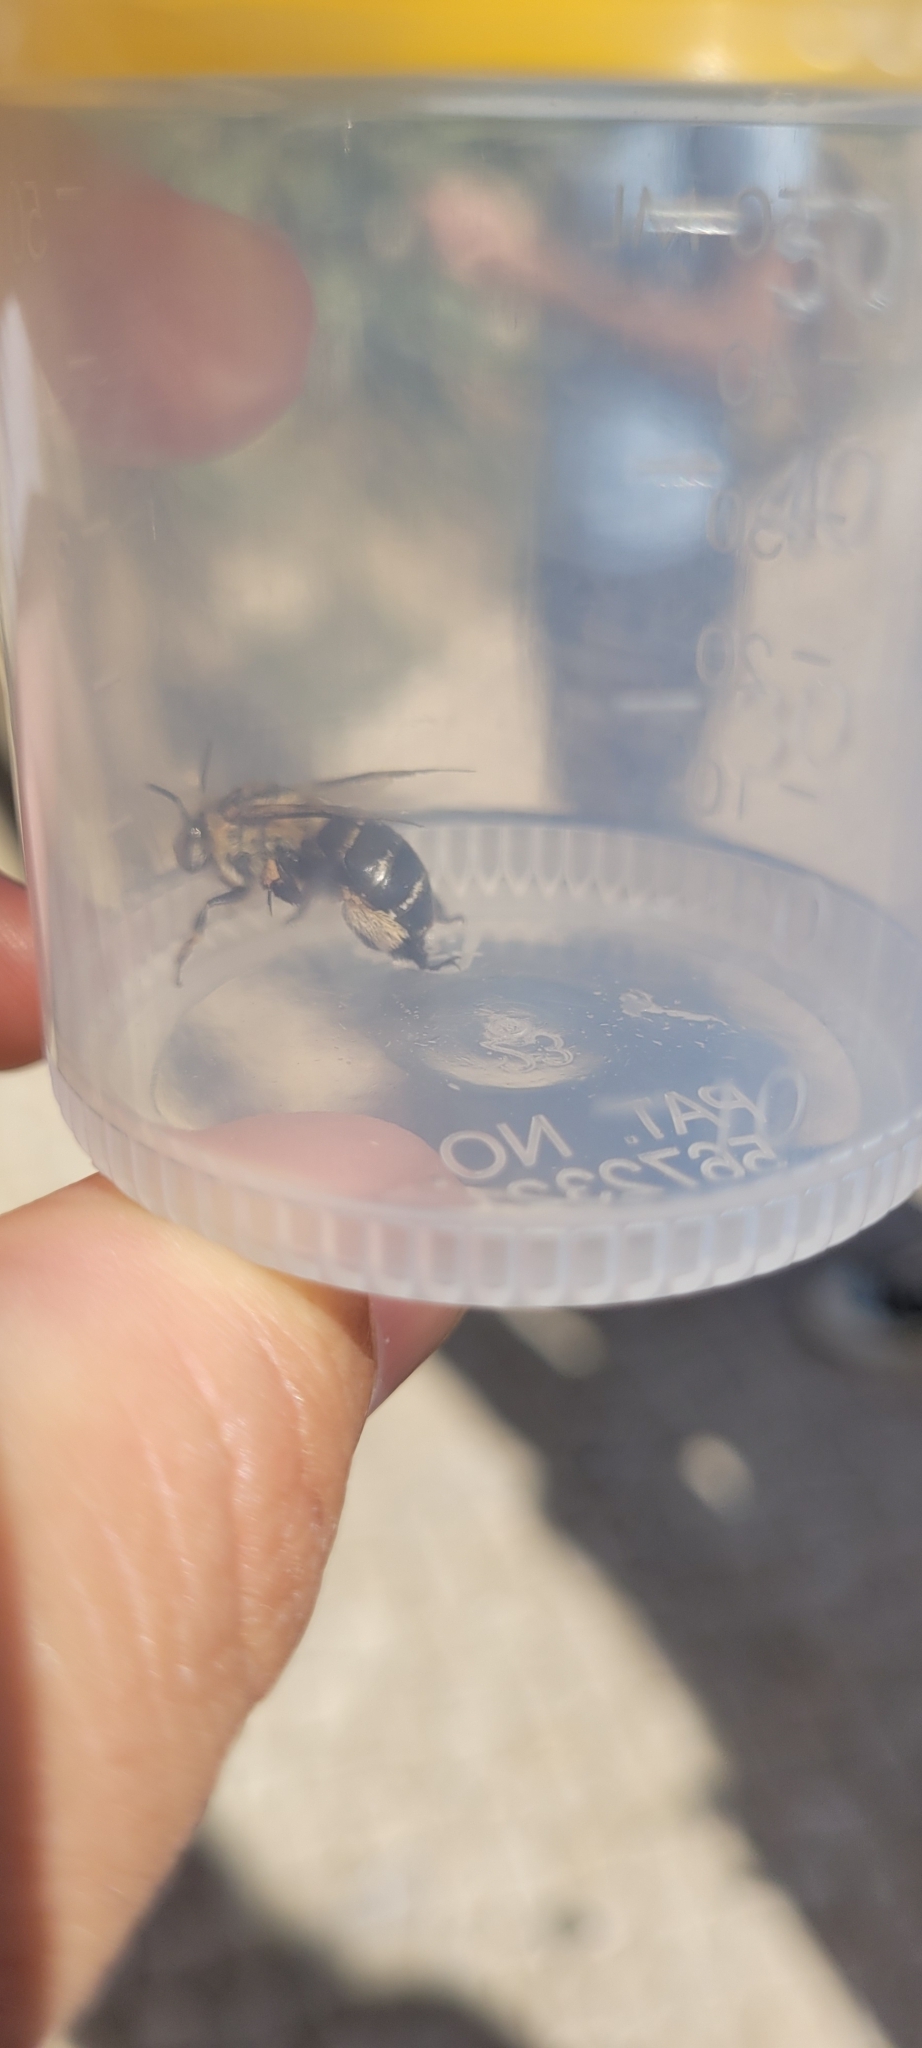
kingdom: Animalia
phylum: Arthropoda
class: Insecta
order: Hymenoptera
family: Apidae
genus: Amegilla
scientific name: Amegilla quadrifasciata
